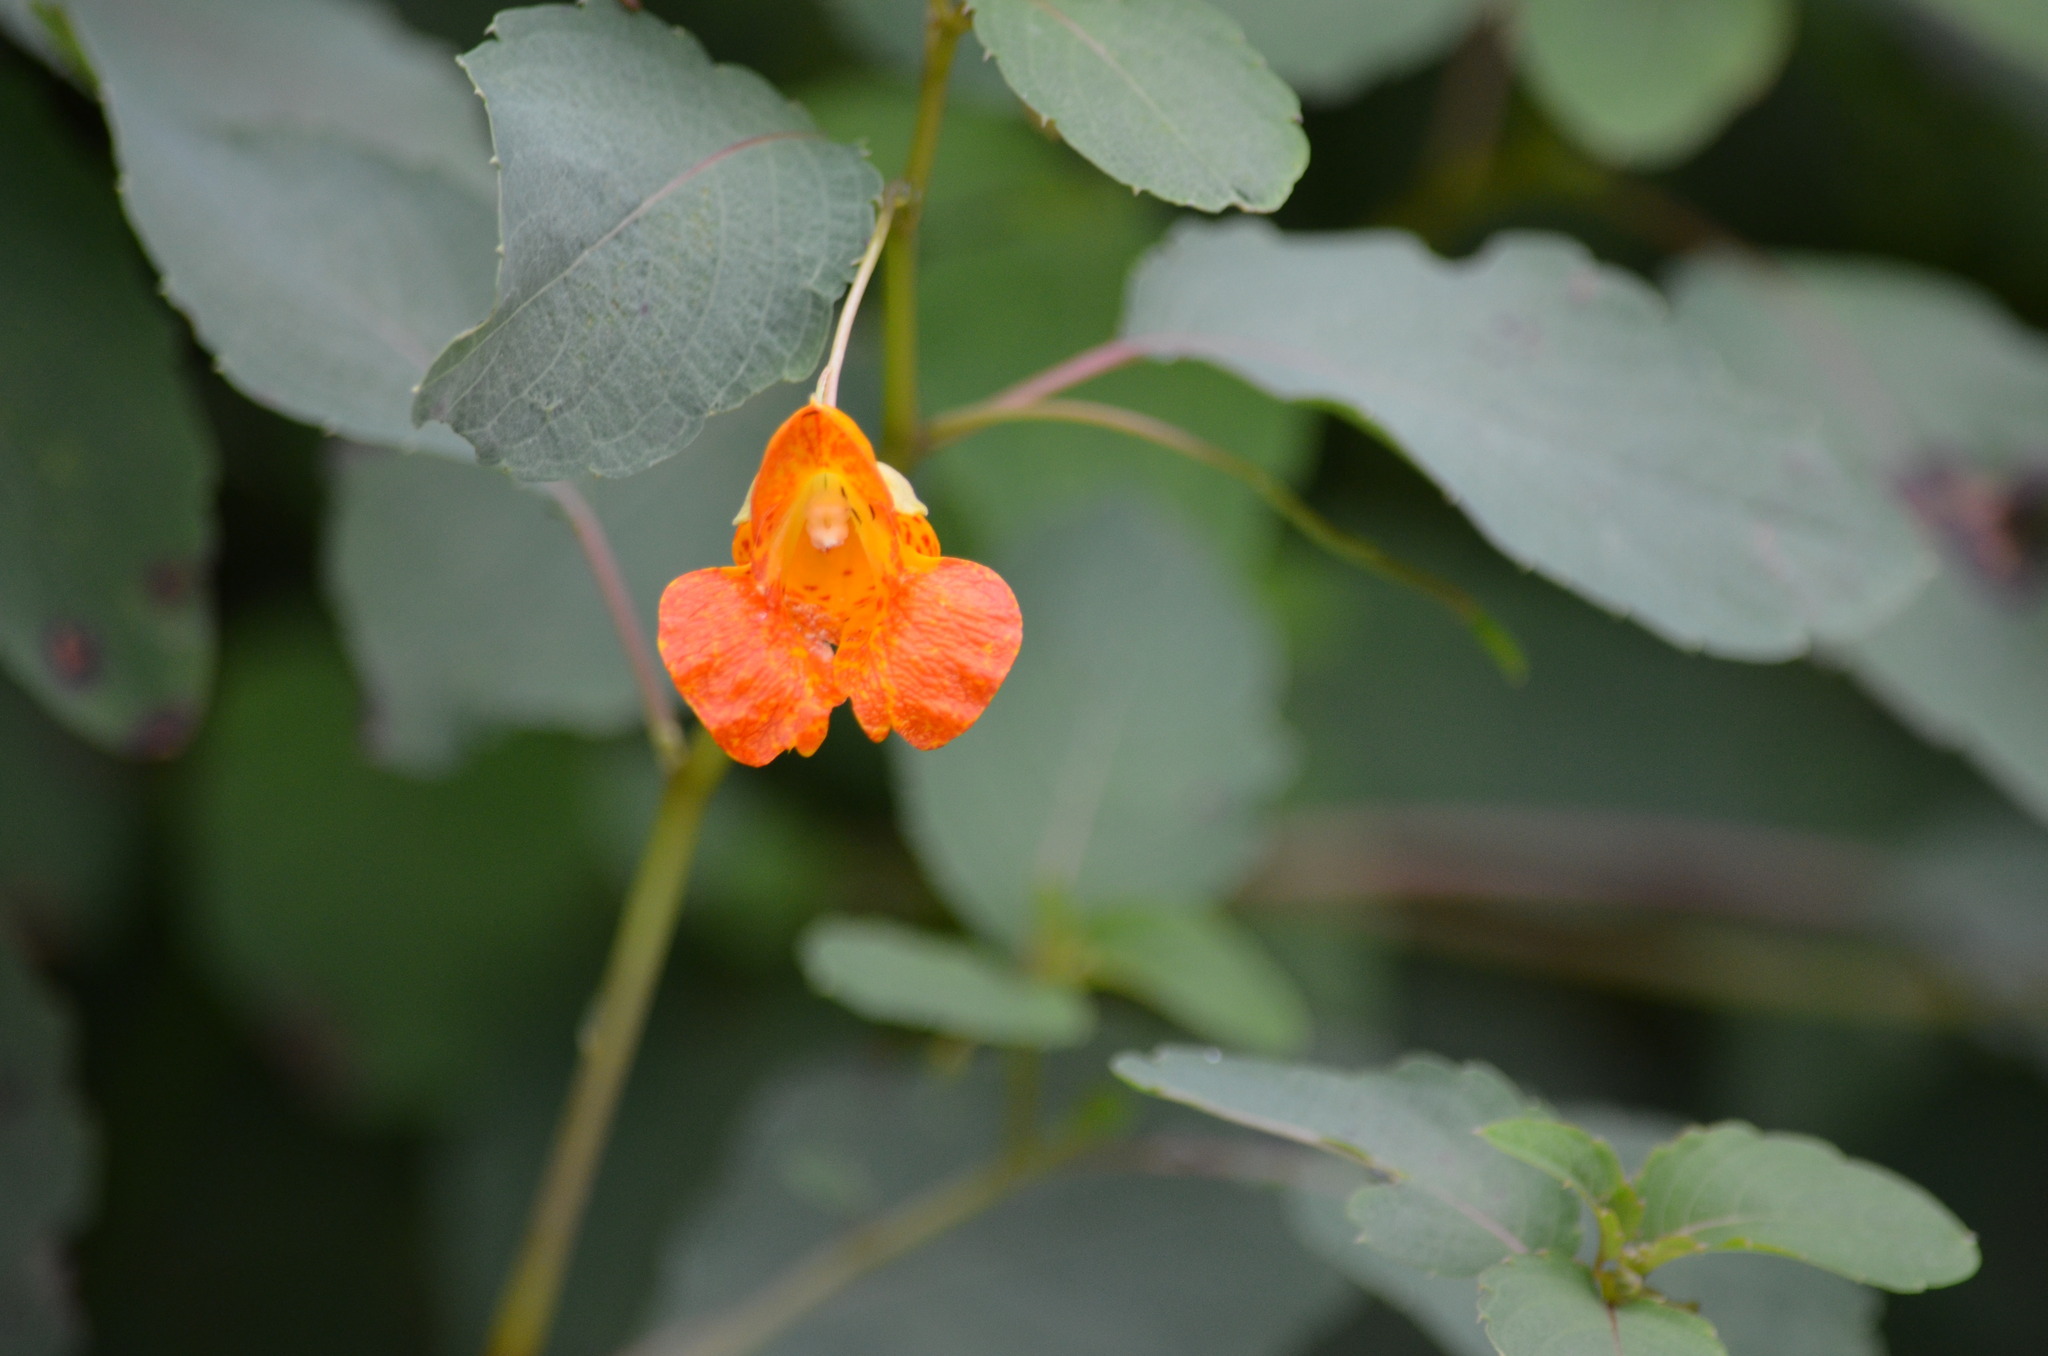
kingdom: Plantae
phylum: Tracheophyta
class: Magnoliopsida
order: Ericales
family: Balsaminaceae
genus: Impatiens
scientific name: Impatiens capensis
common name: Orange balsam
